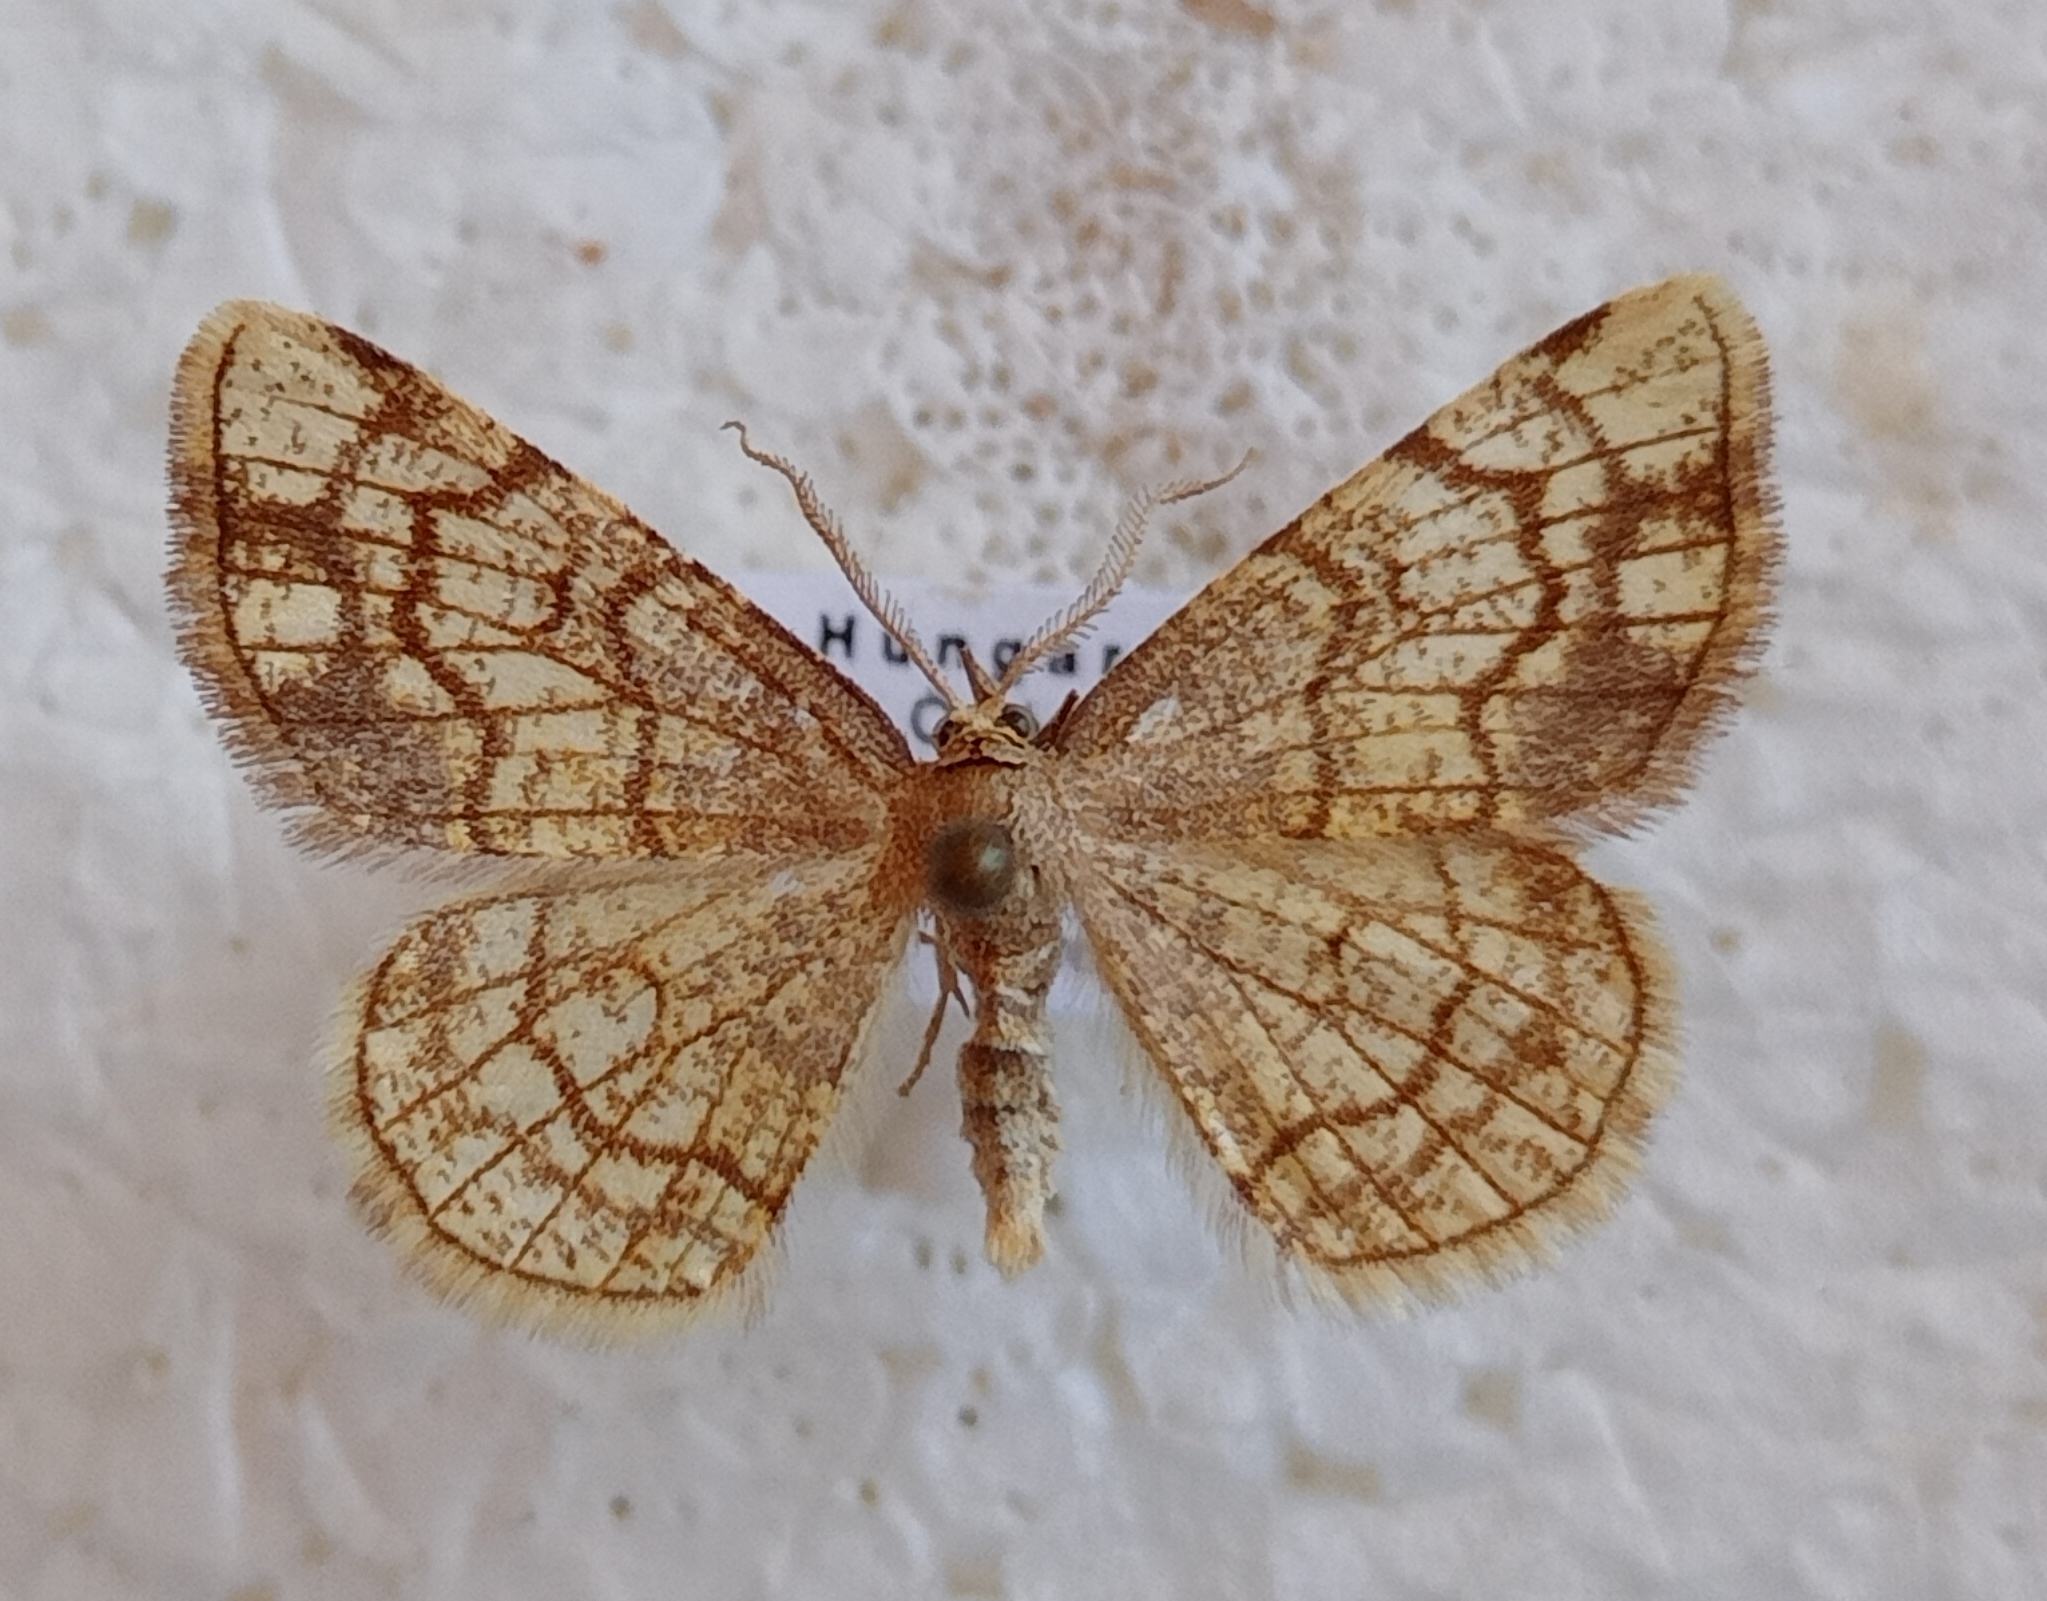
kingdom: Animalia
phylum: Arthropoda
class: Insecta
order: Lepidoptera
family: Geometridae
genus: Stegania
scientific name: Stegania dilectaria
